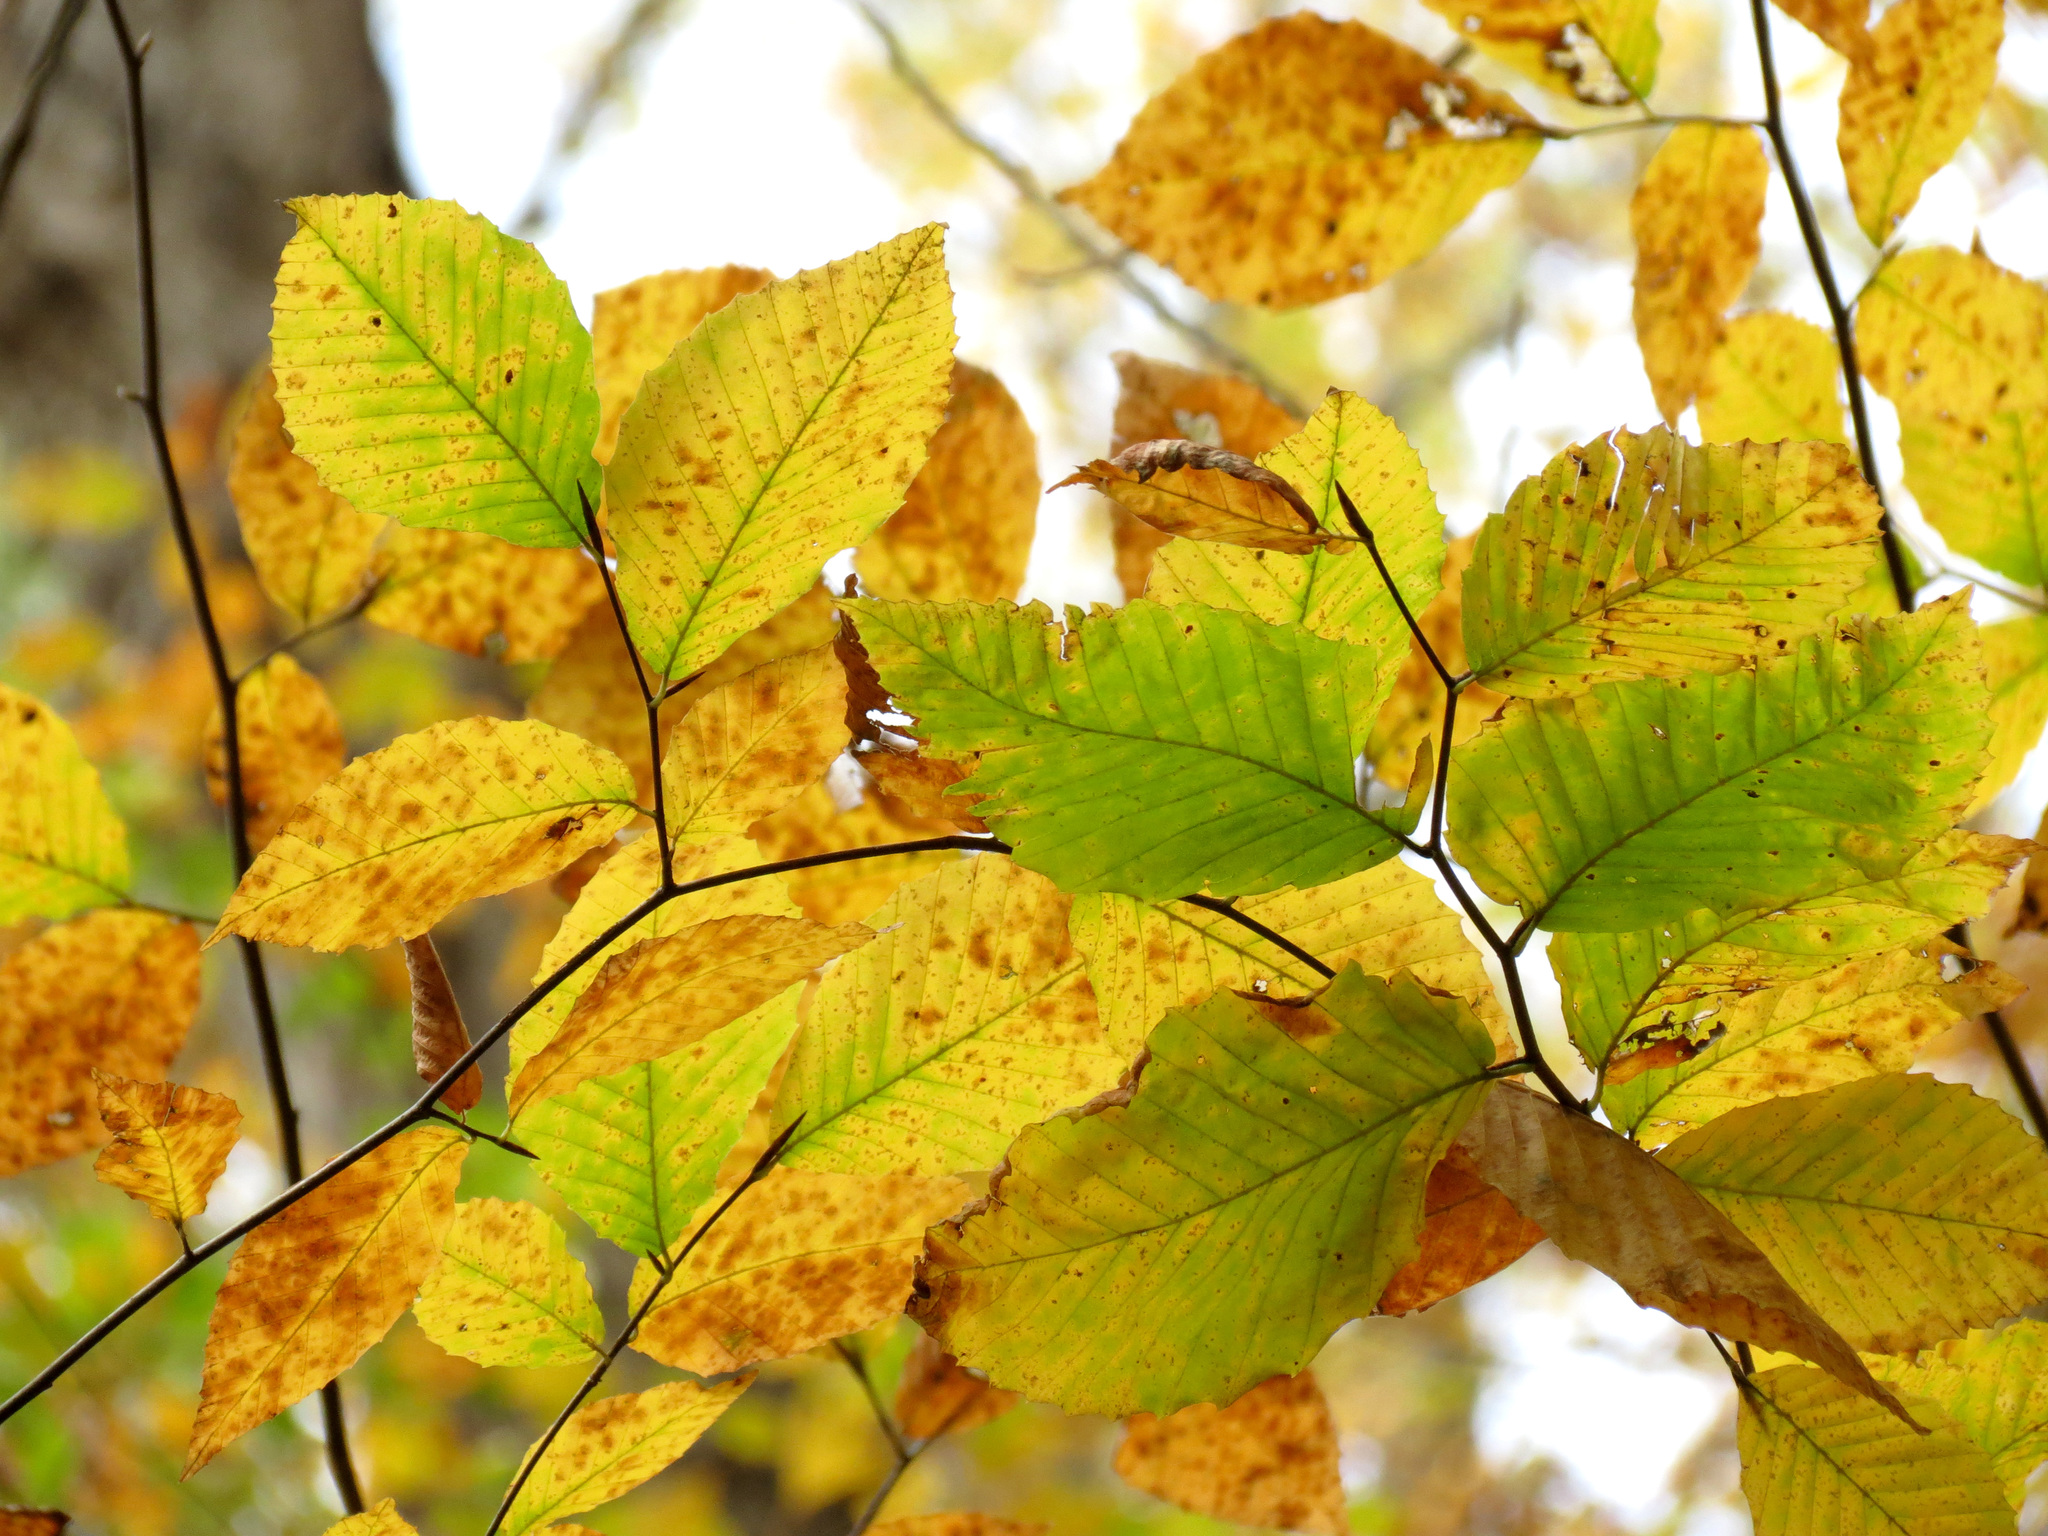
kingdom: Plantae
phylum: Tracheophyta
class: Magnoliopsida
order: Fagales
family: Fagaceae
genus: Fagus
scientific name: Fagus grandifolia
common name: American beech
